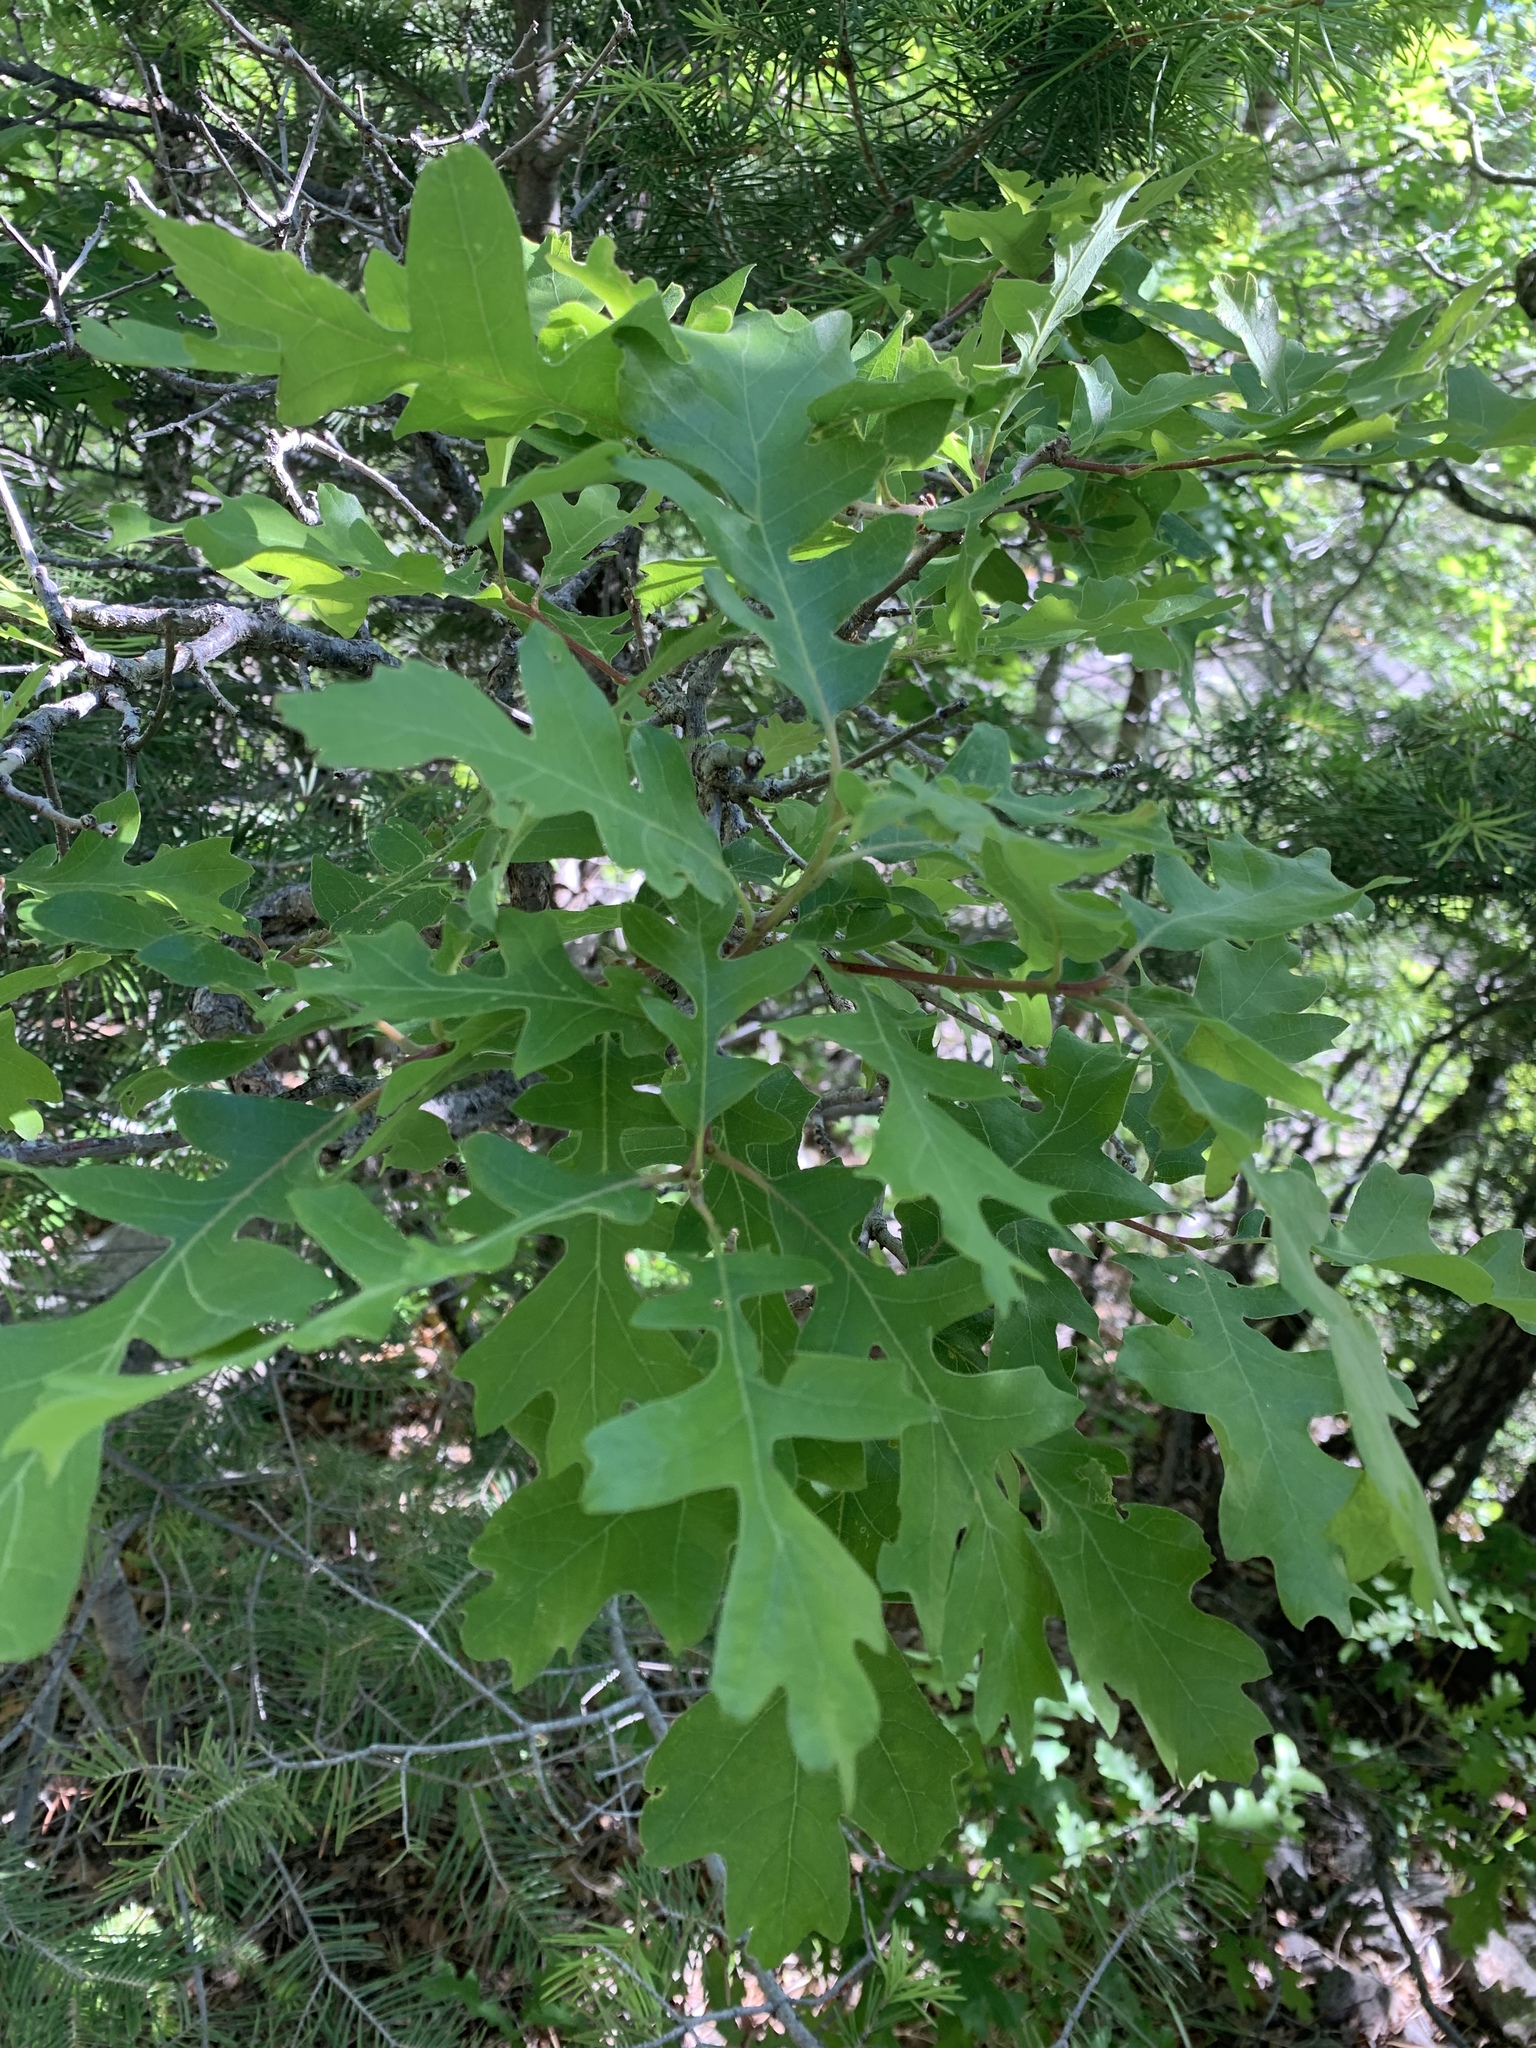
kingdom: Plantae
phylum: Tracheophyta
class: Magnoliopsida
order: Fagales
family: Fagaceae
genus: Quercus
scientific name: Quercus gambelii
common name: Gambel oak
